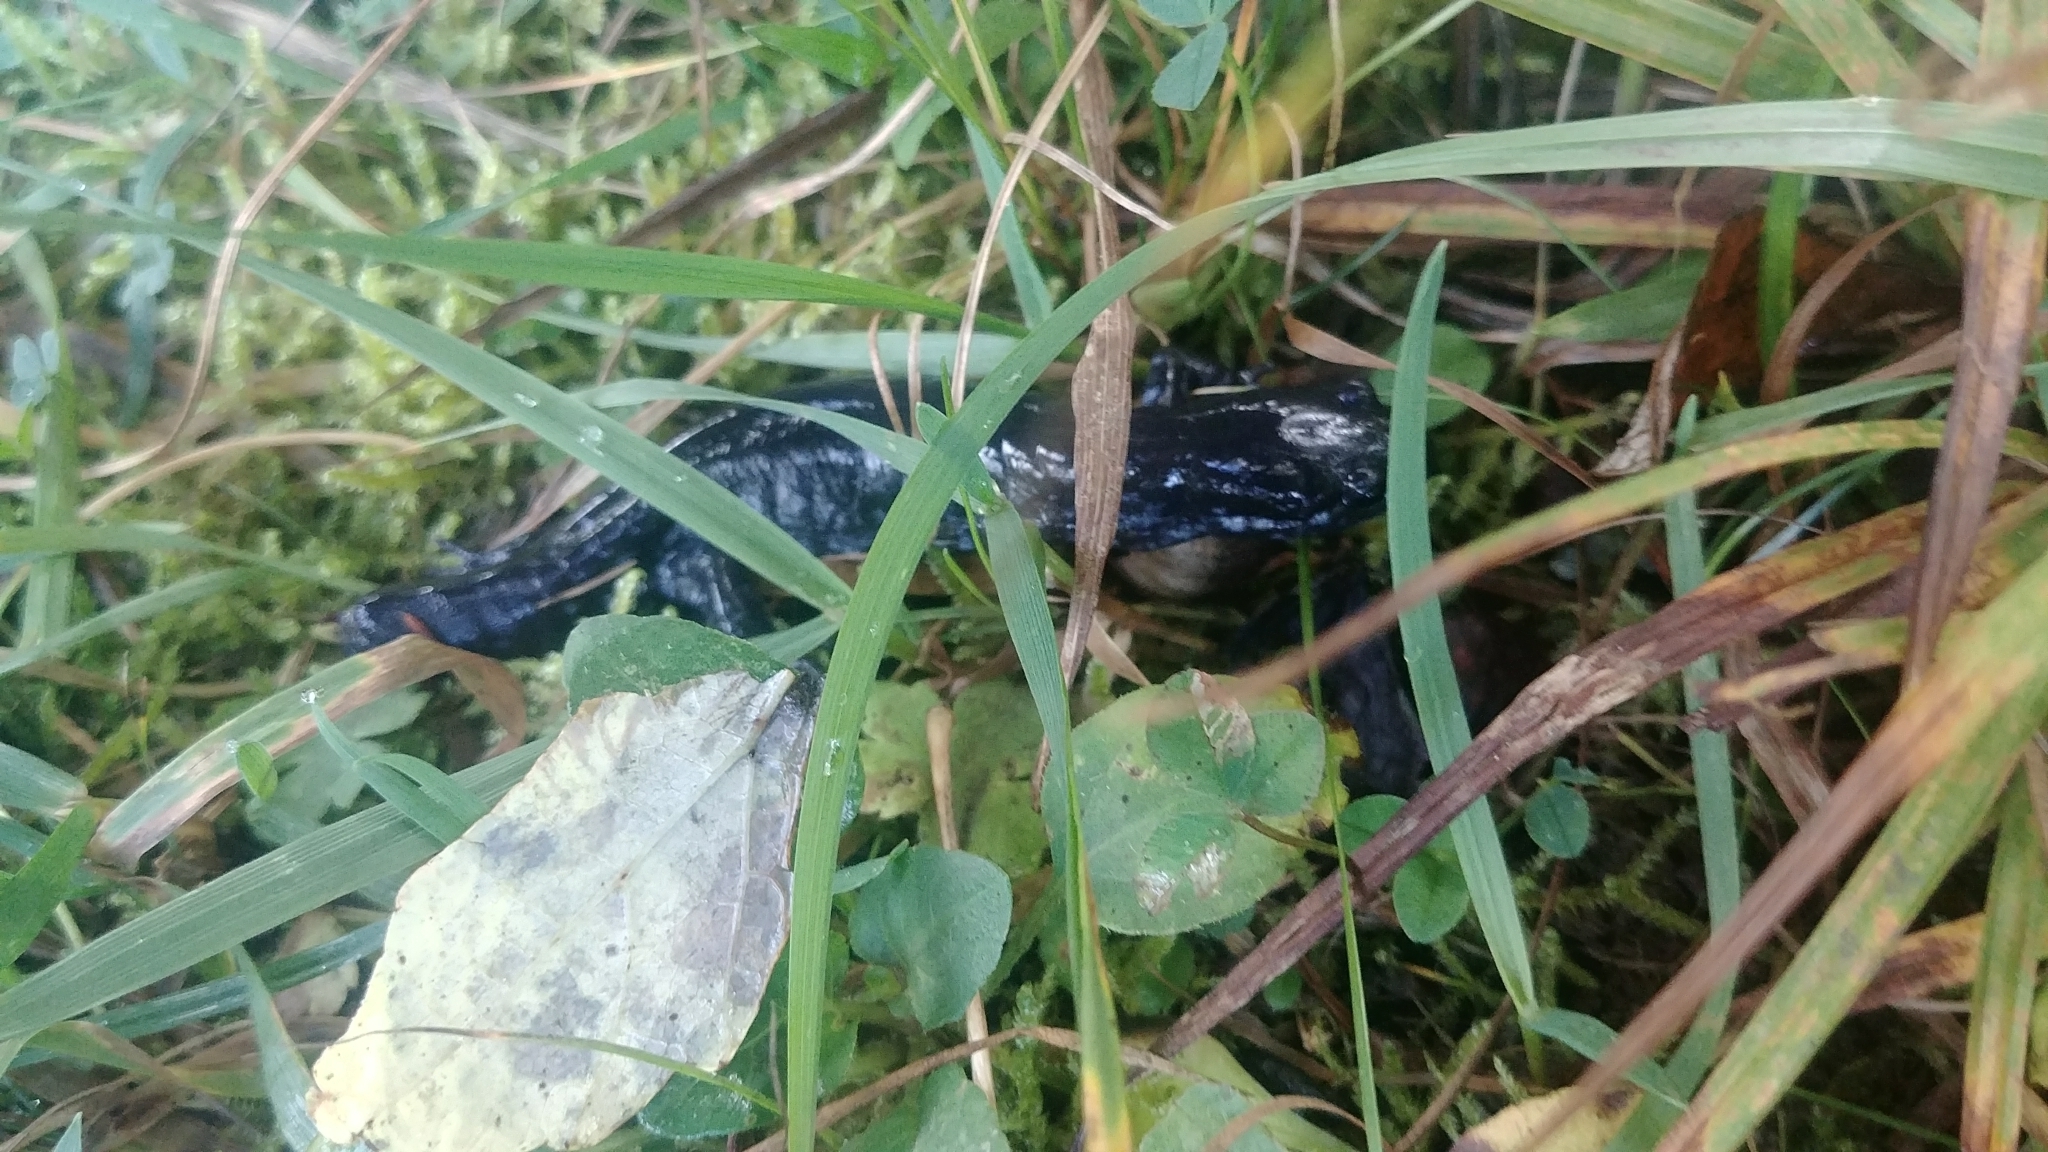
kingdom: Animalia
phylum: Chordata
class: Amphibia
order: Caudata
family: Ambystomatidae
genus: Ambystoma
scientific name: Ambystoma laterale
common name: Blue-spotted salamander
